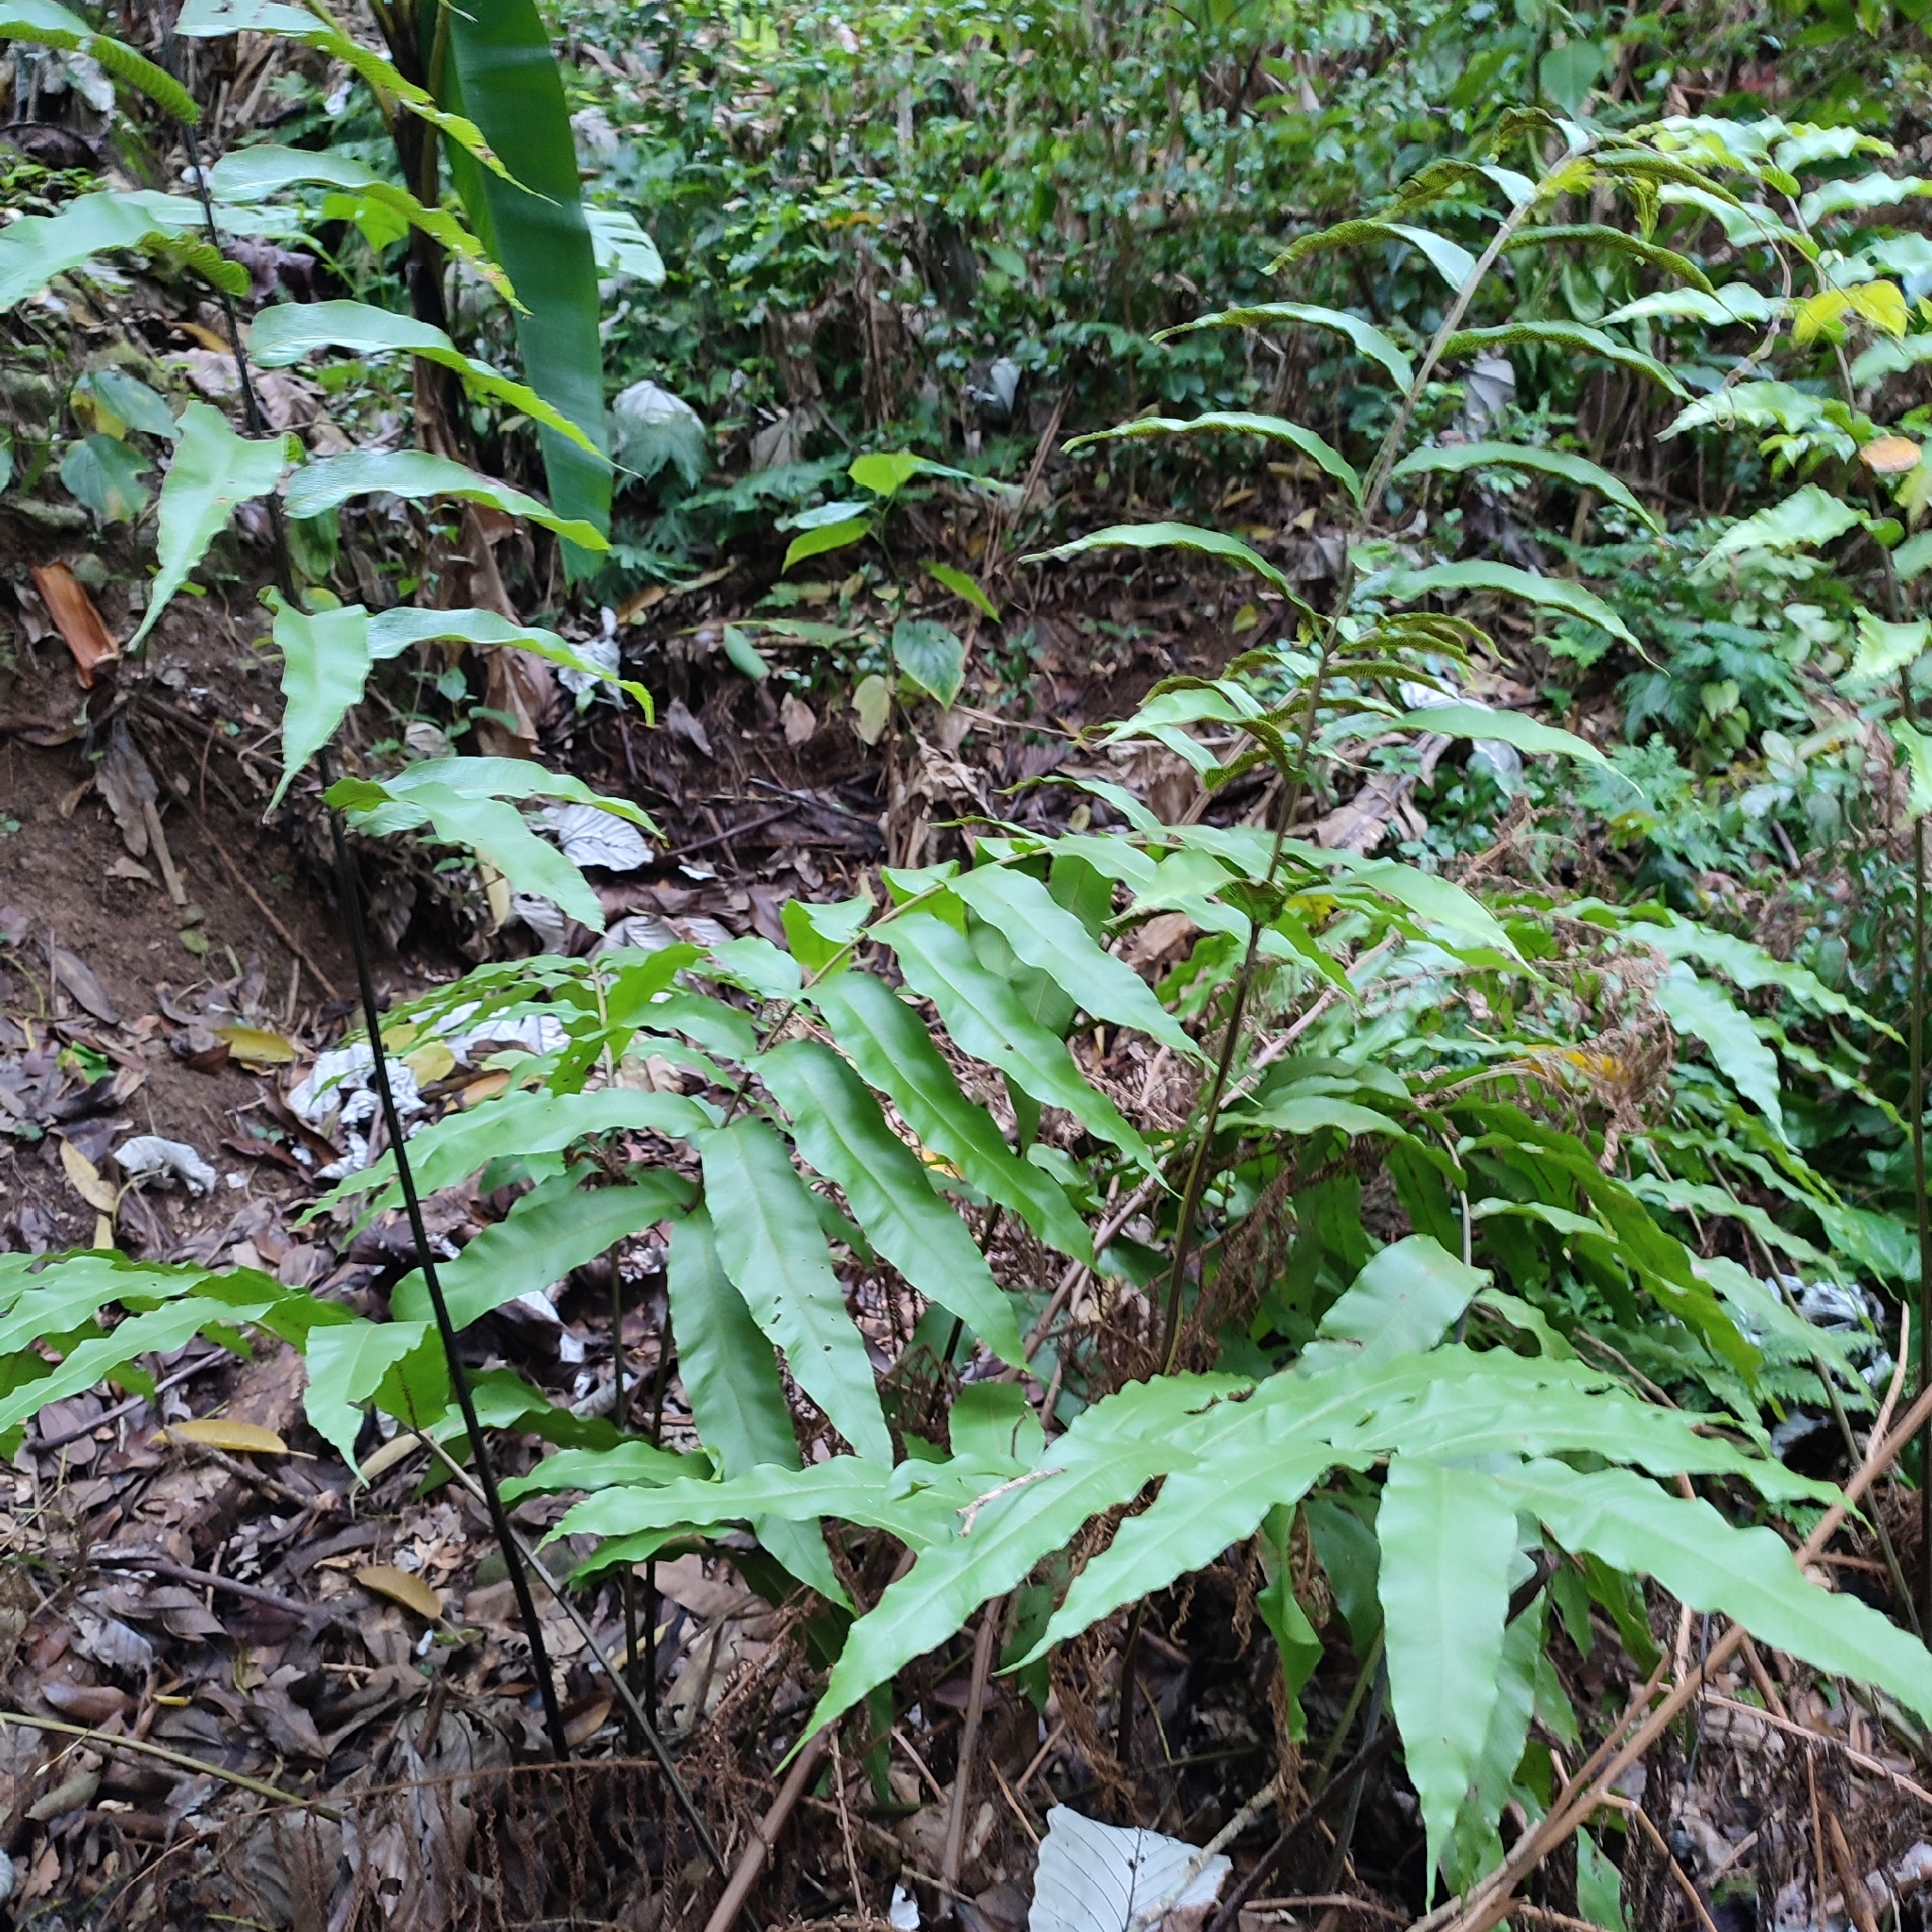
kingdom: Plantae
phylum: Tracheophyta
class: Polypodiopsida
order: Polypodiales
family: Thelypteridaceae
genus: Meniscium
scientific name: Meniscium reticulatum
